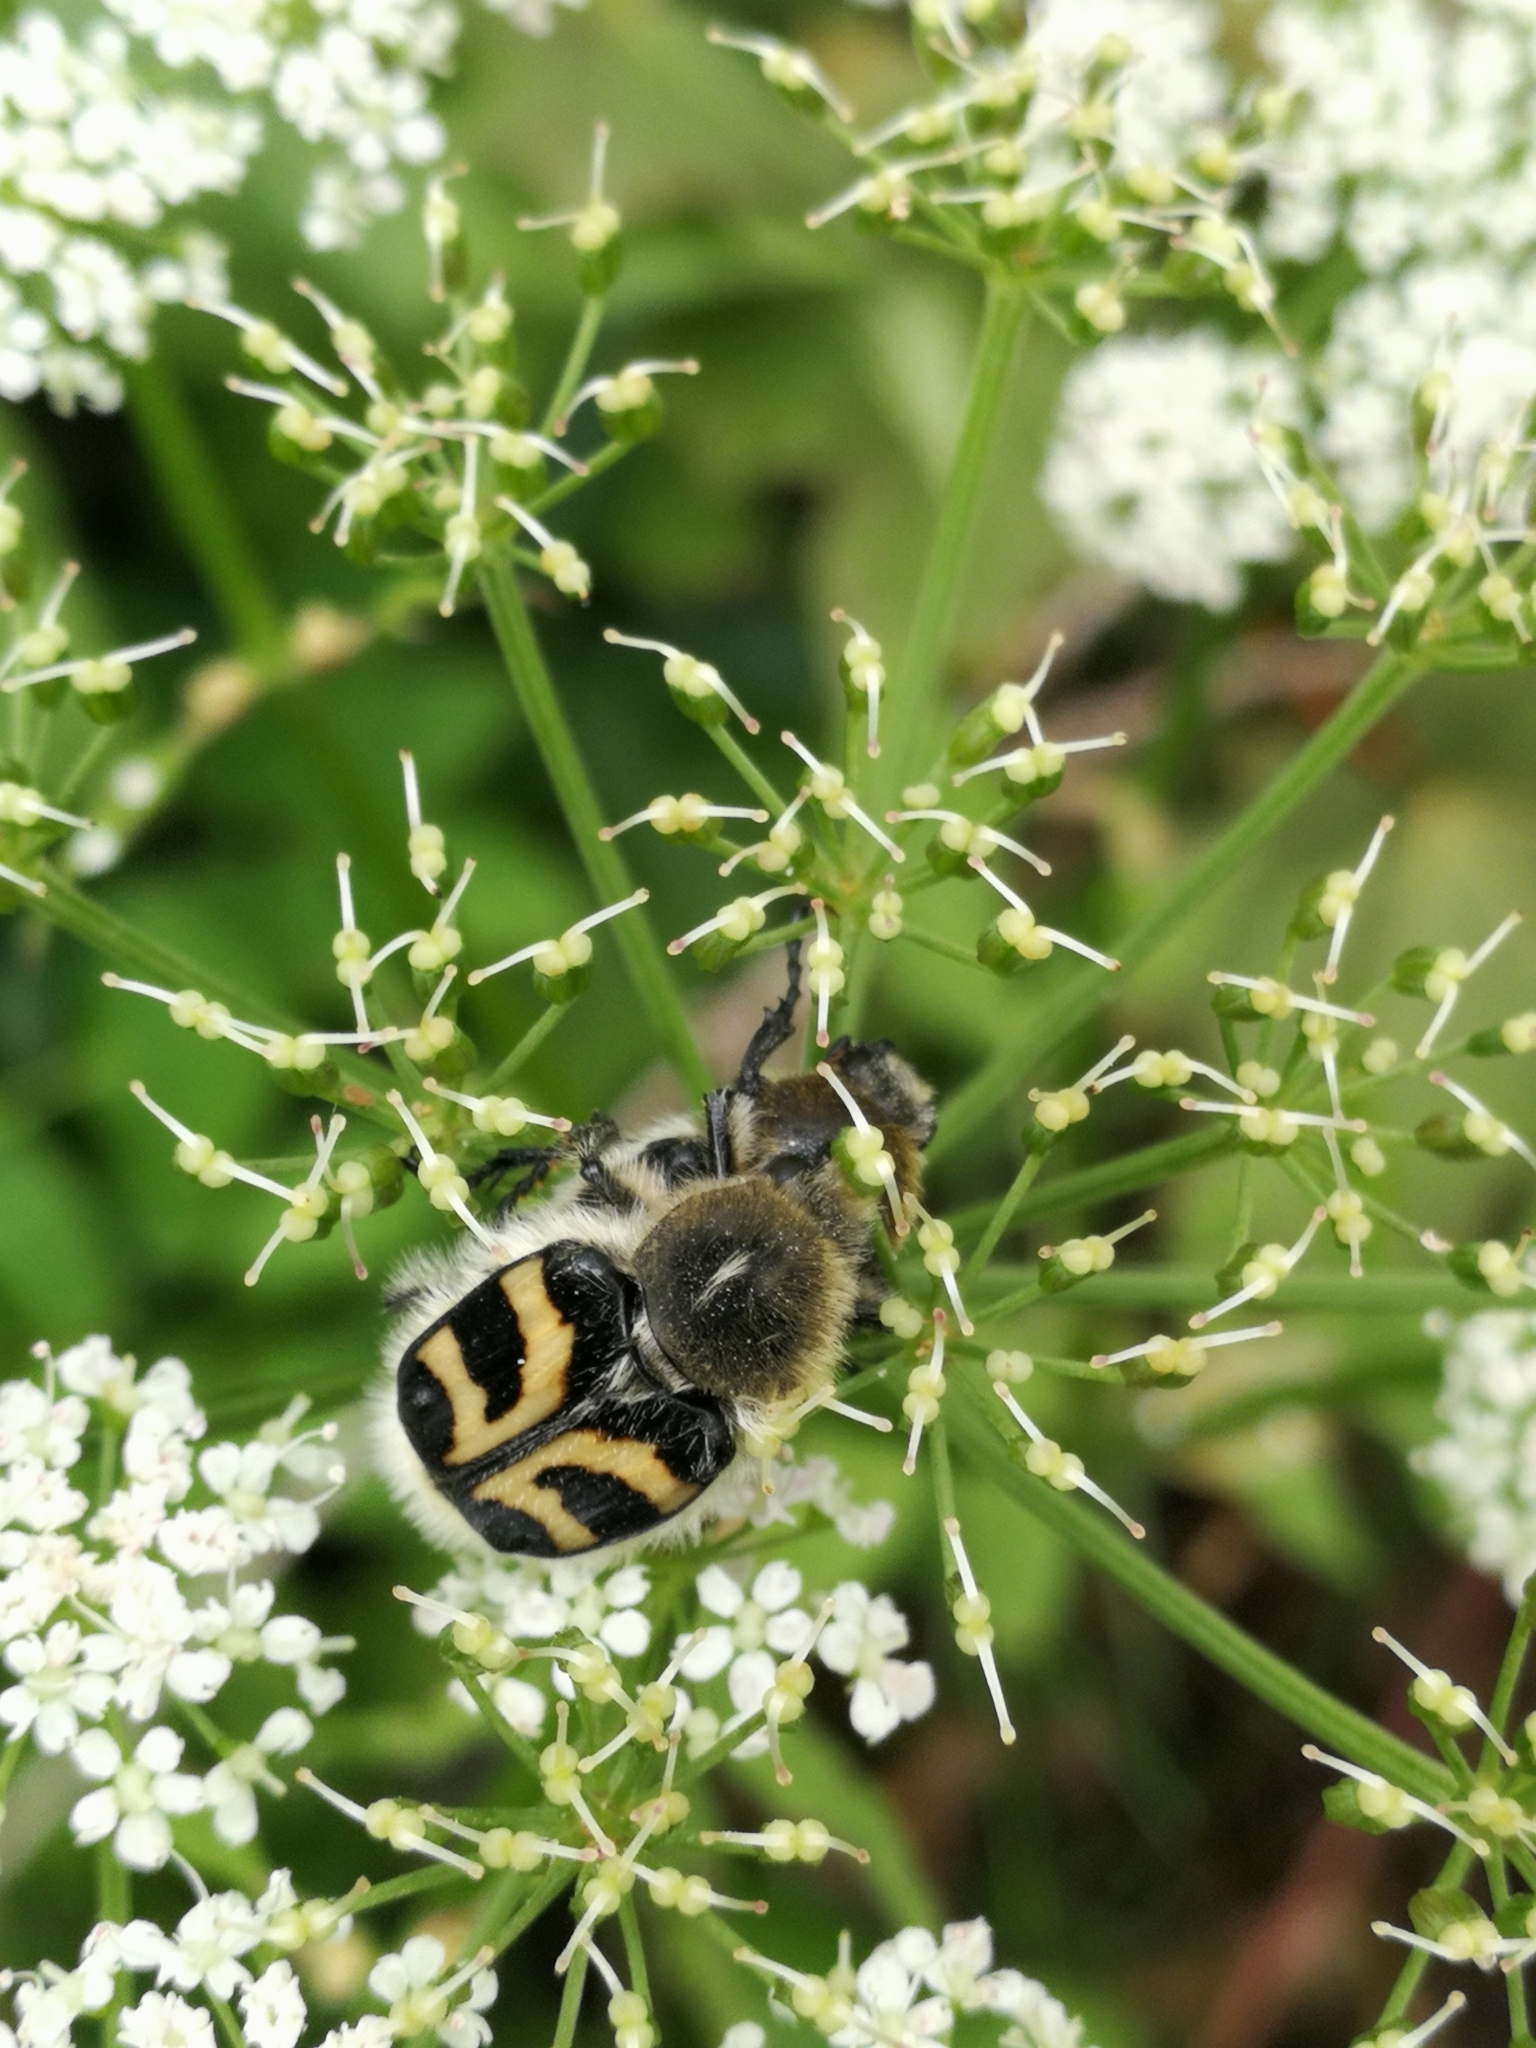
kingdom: Animalia
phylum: Arthropoda
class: Insecta
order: Coleoptera
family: Scarabaeidae
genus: Trichius
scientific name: Trichius fasciatus
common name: Bee beetle
